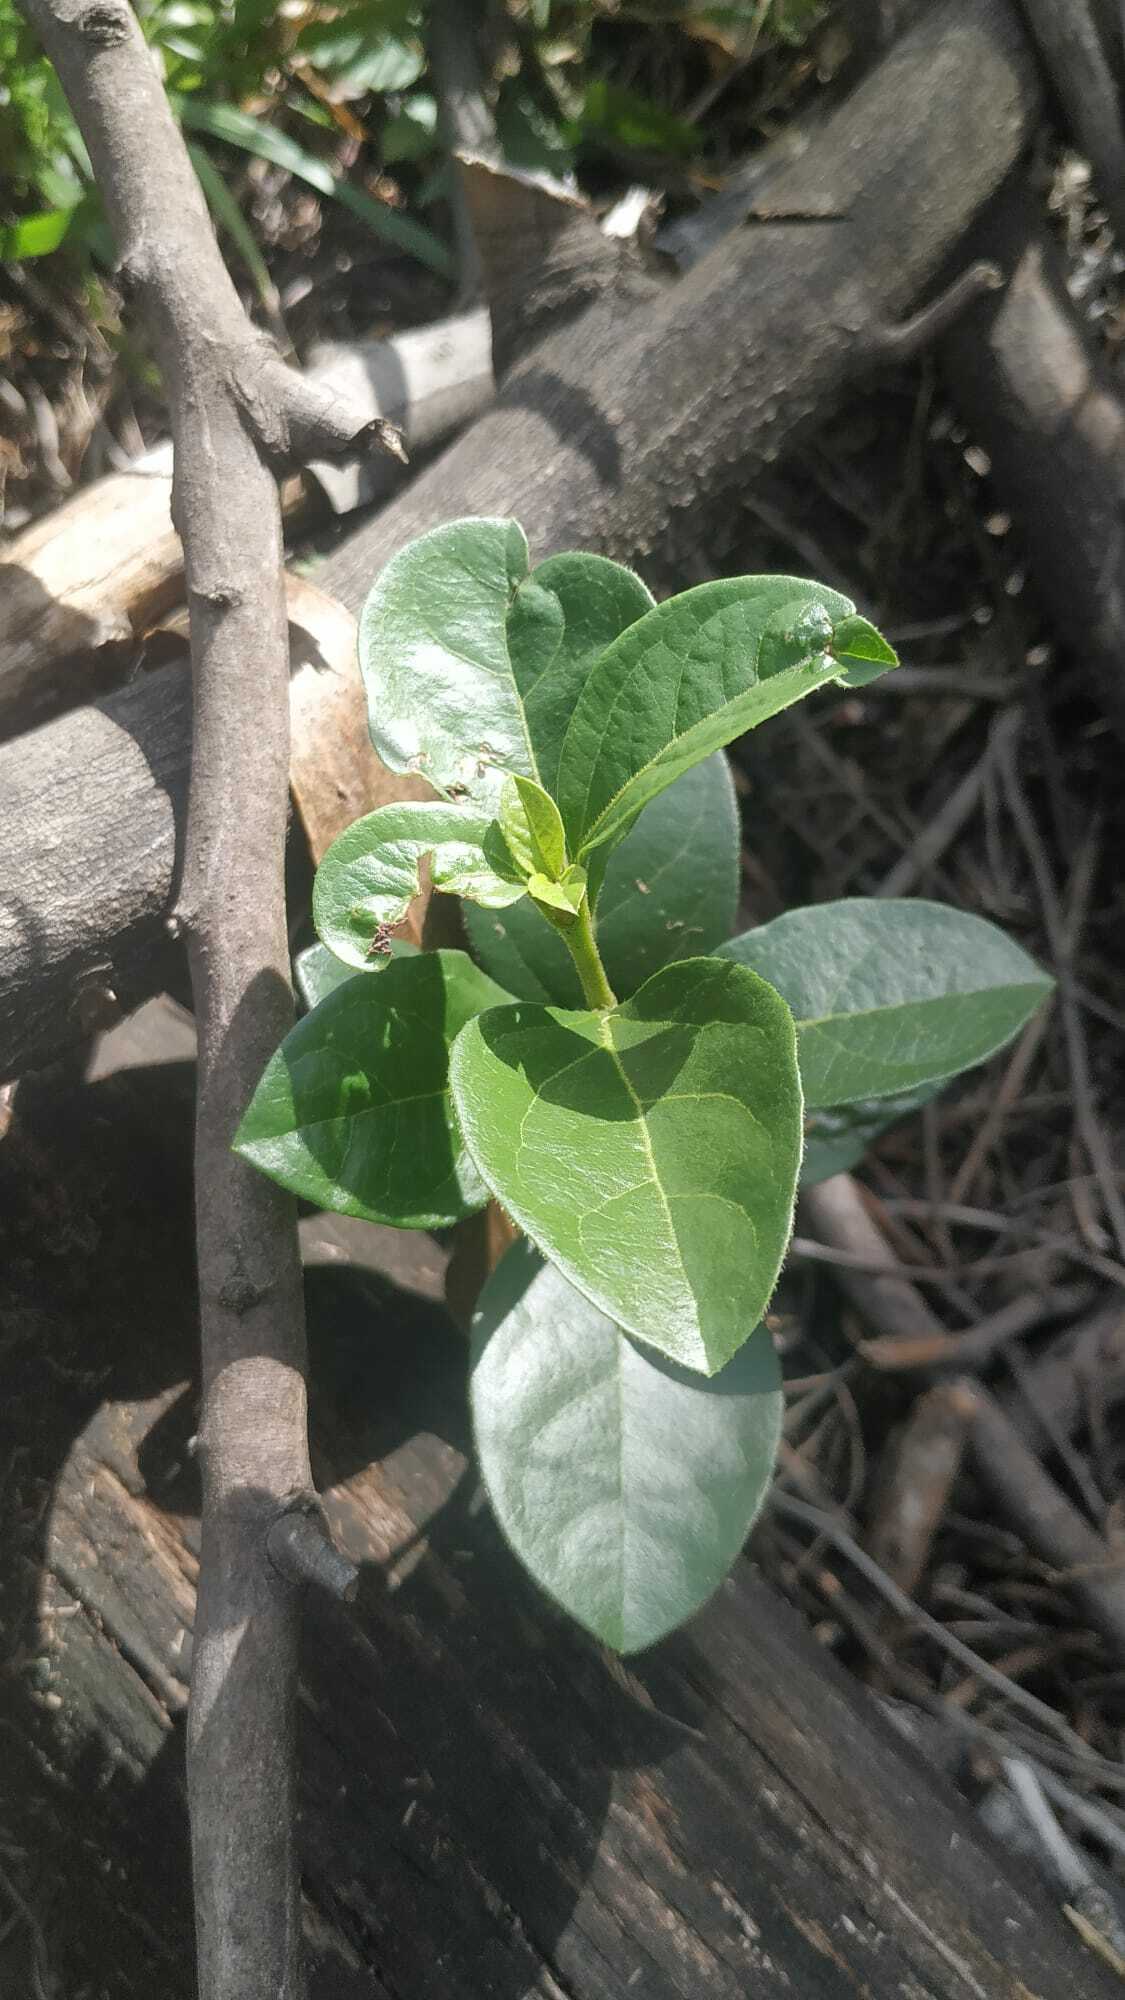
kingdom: Plantae
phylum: Tracheophyta
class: Magnoliopsida
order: Dipsacales
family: Viburnaceae
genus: Viburnum
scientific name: Viburnum tinus
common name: Laurustinus
